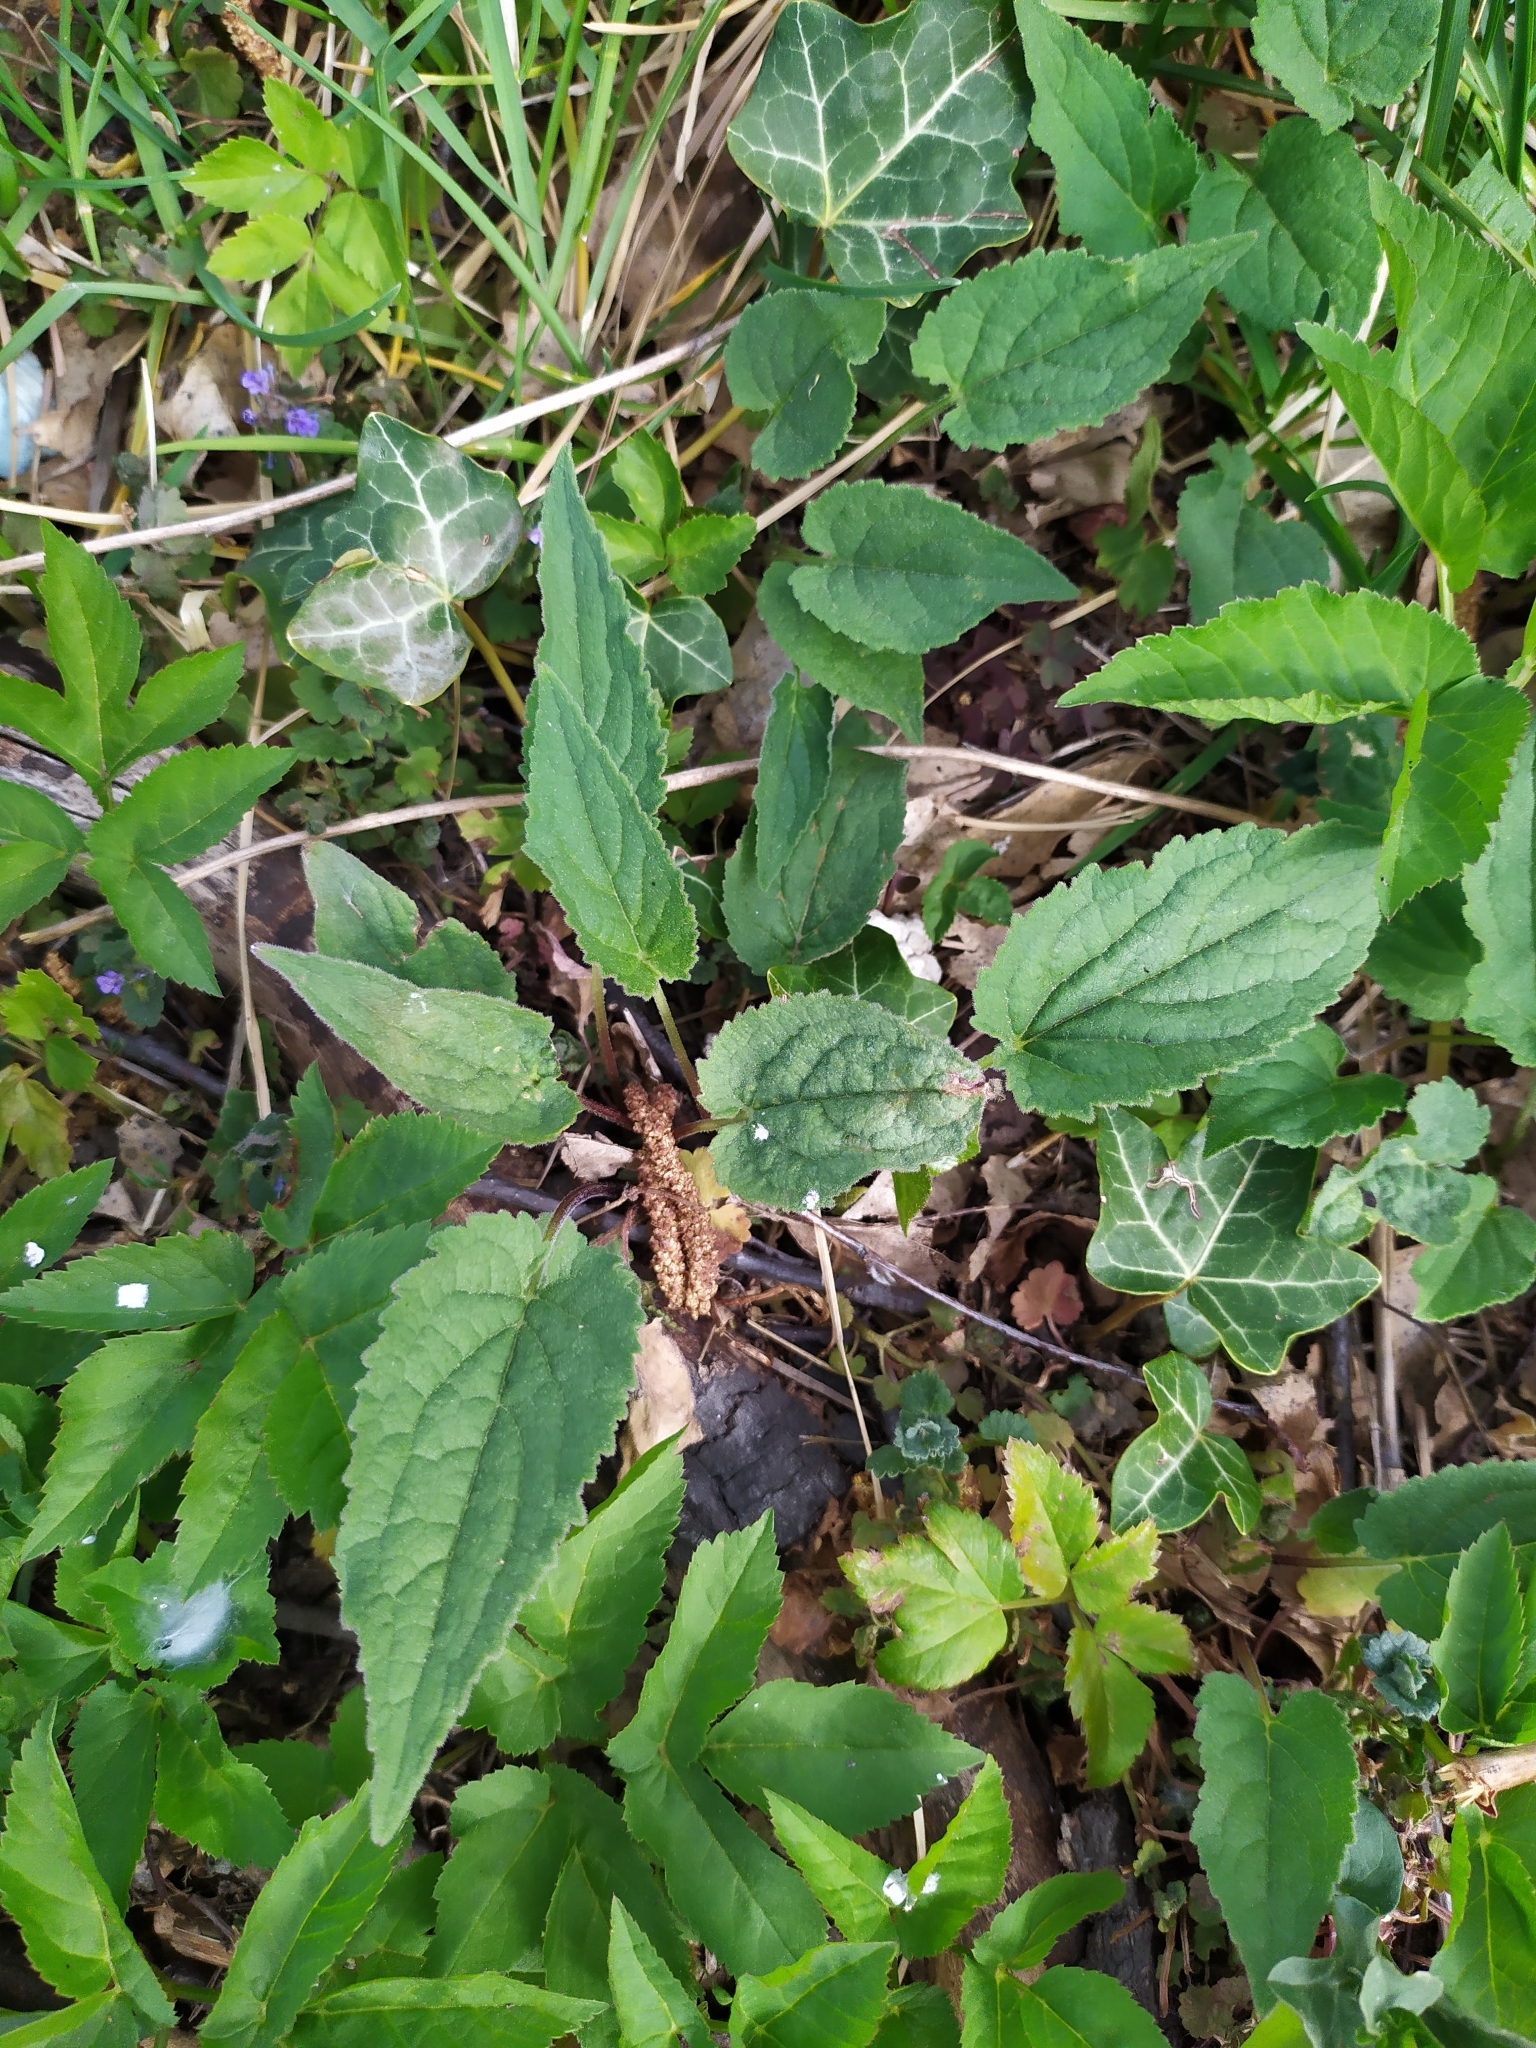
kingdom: Plantae
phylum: Tracheophyta
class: Magnoliopsida
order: Asterales
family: Campanulaceae
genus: Campanula
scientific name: Campanula rapunculoides
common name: Creeping bellflower
